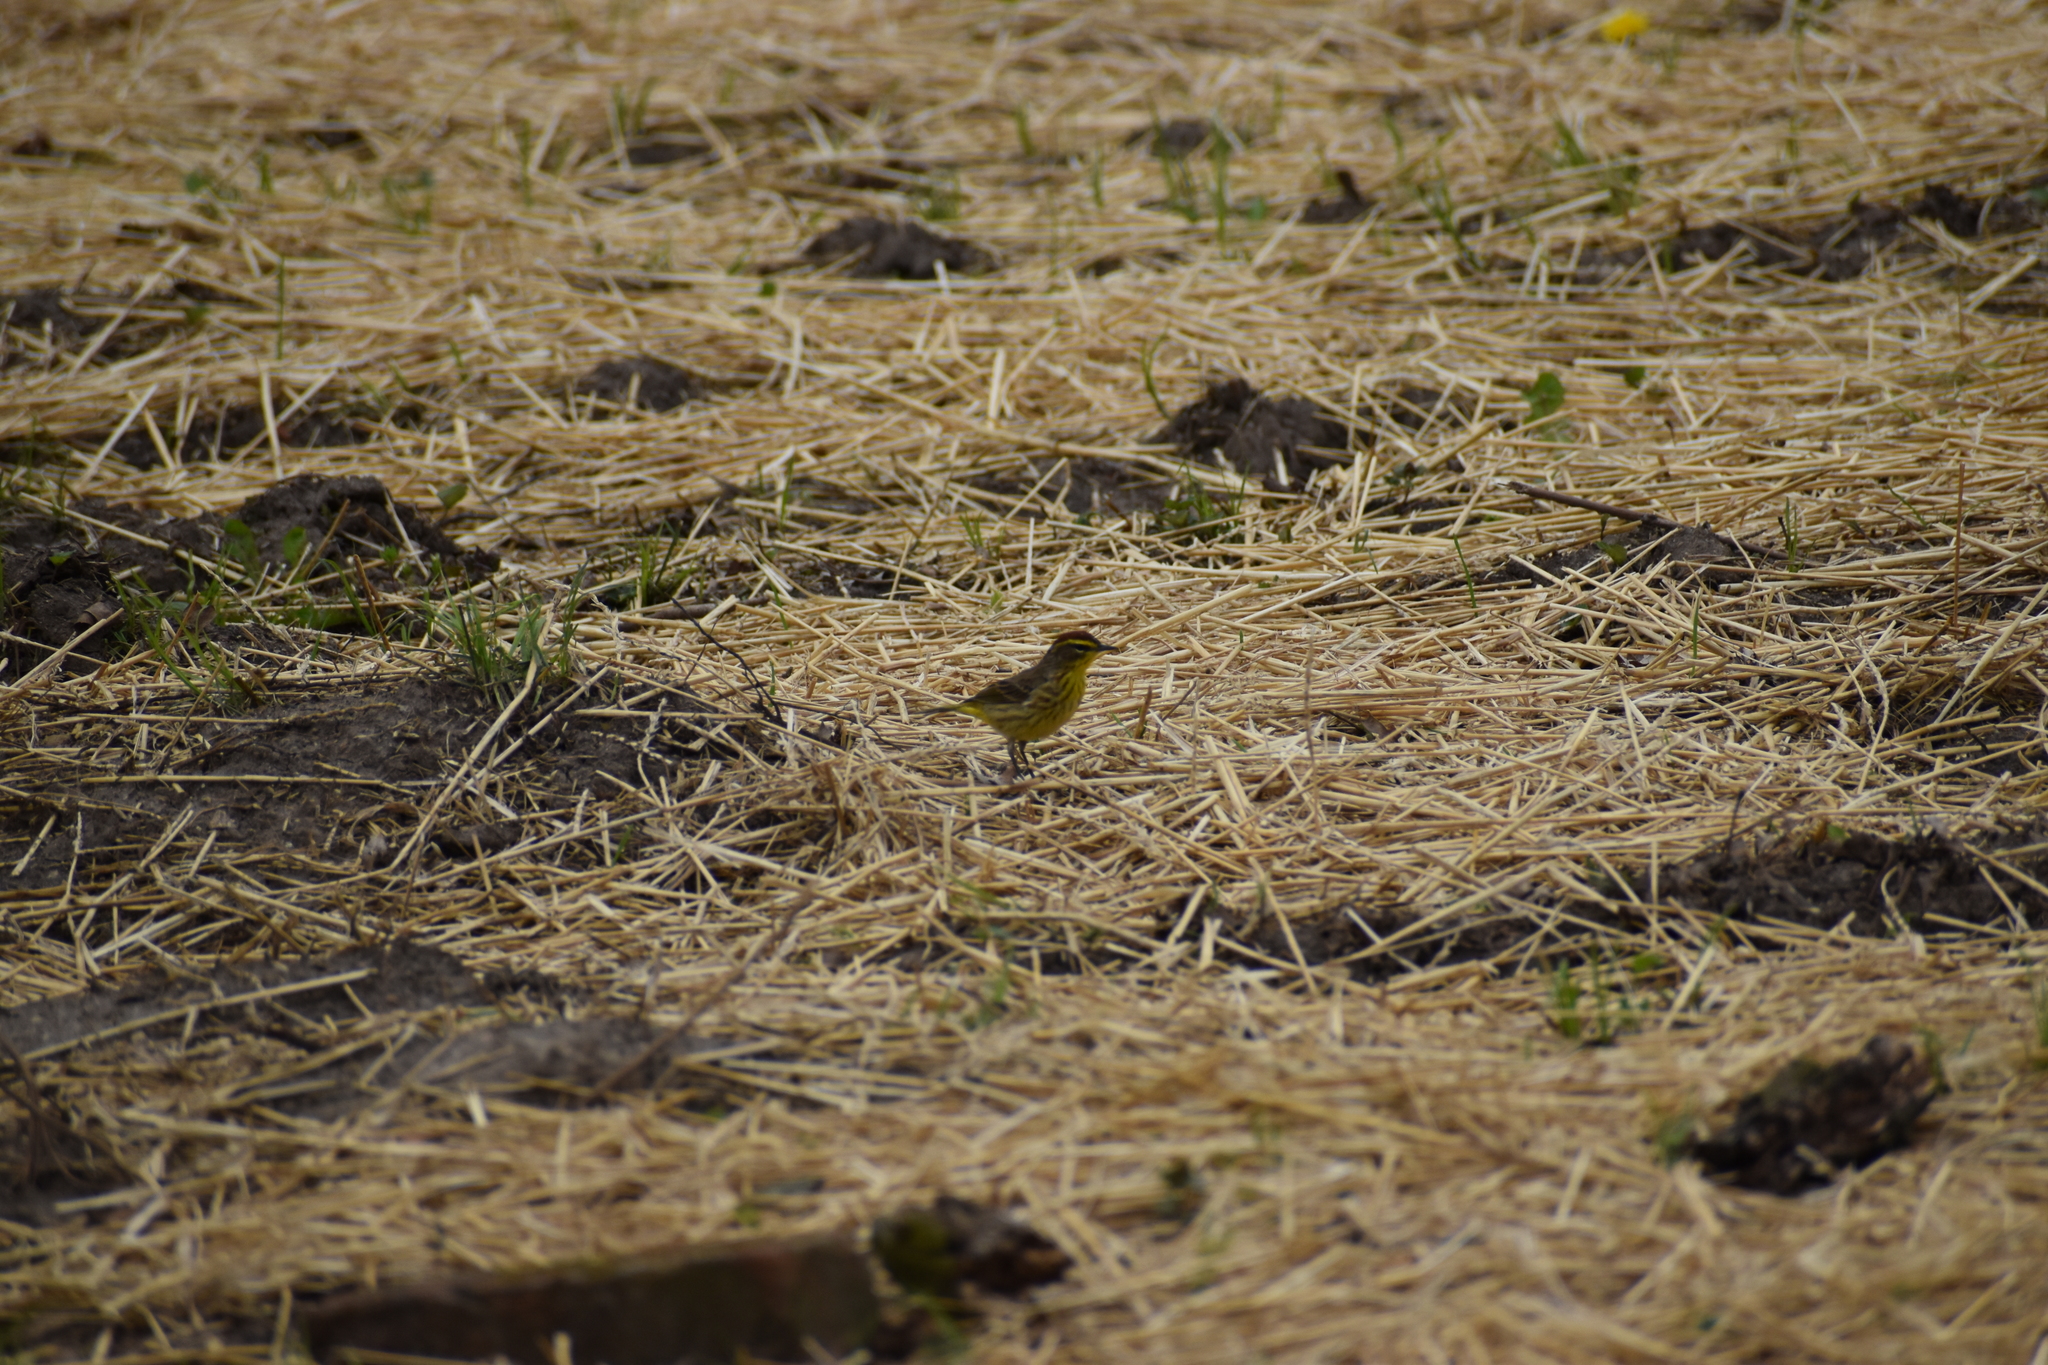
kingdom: Animalia
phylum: Chordata
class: Aves
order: Passeriformes
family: Parulidae
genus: Setophaga
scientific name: Setophaga palmarum
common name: Palm warbler
